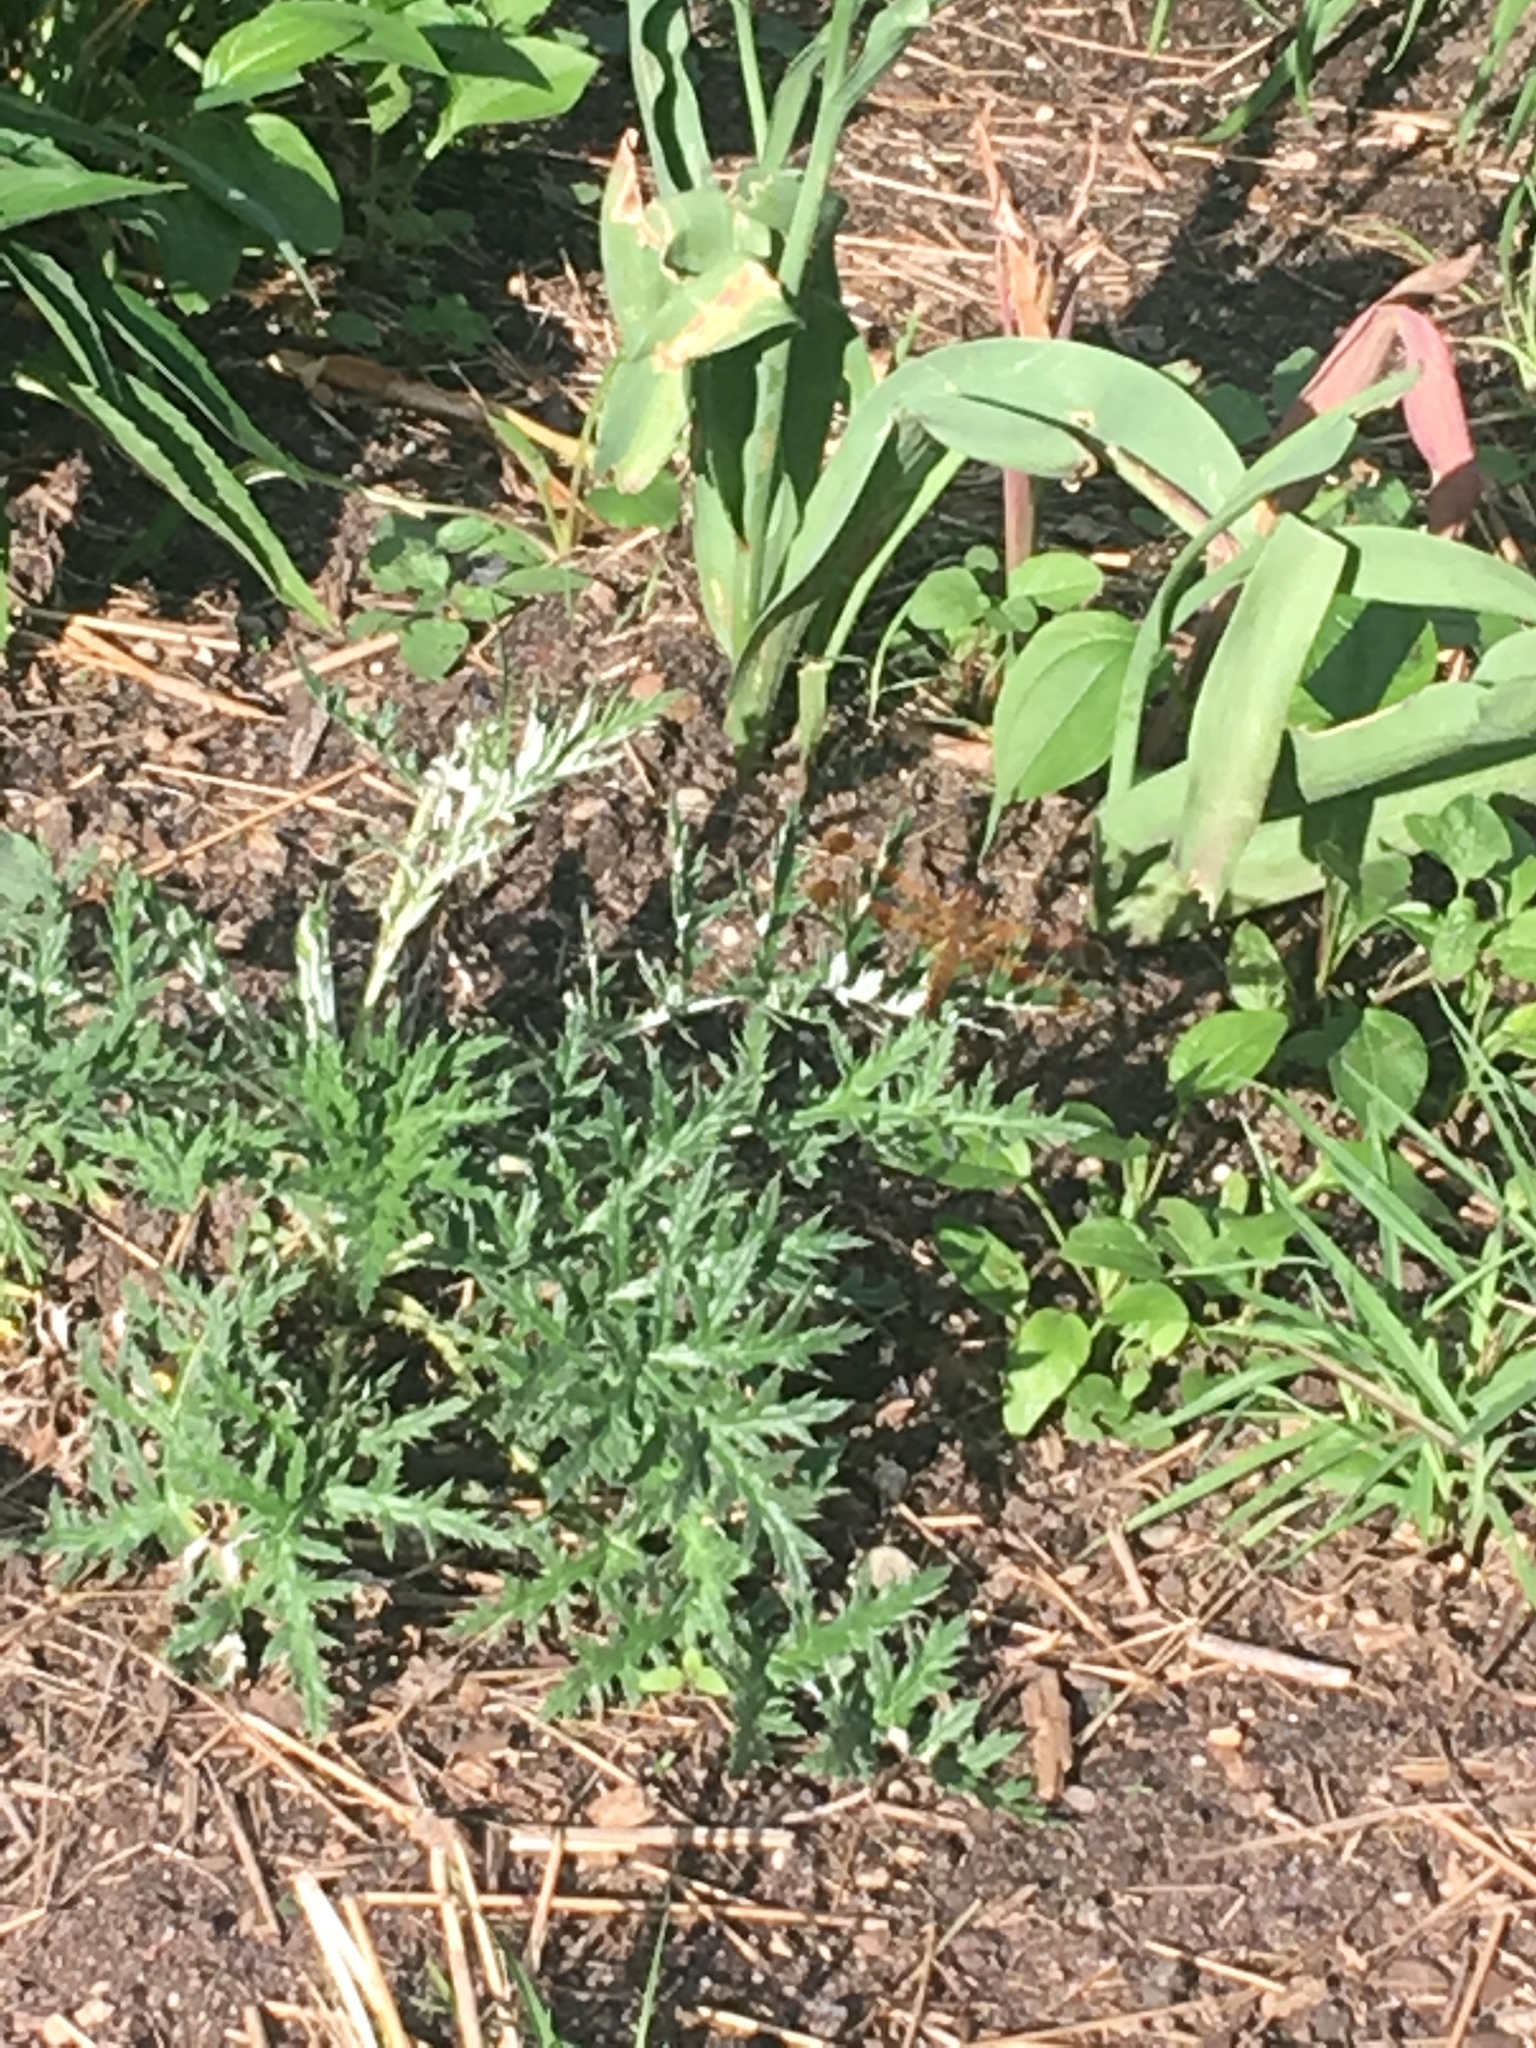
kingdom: Animalia
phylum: Arthropoda
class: Insecta
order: Odonata
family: Libellulidae
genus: Libellula
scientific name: Libellula semifasciata
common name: Painted skimmer
